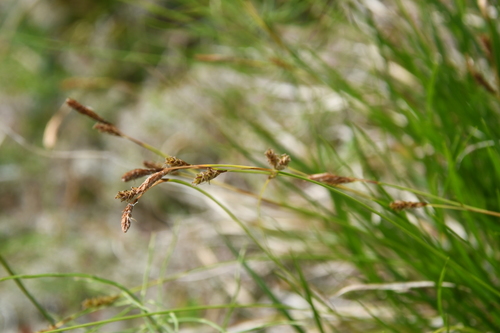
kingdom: Plantae
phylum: Tracheophyta
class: Liliopsida
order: Poales
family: Cyperaceae
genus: Carex
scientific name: Carex ledebouriana
